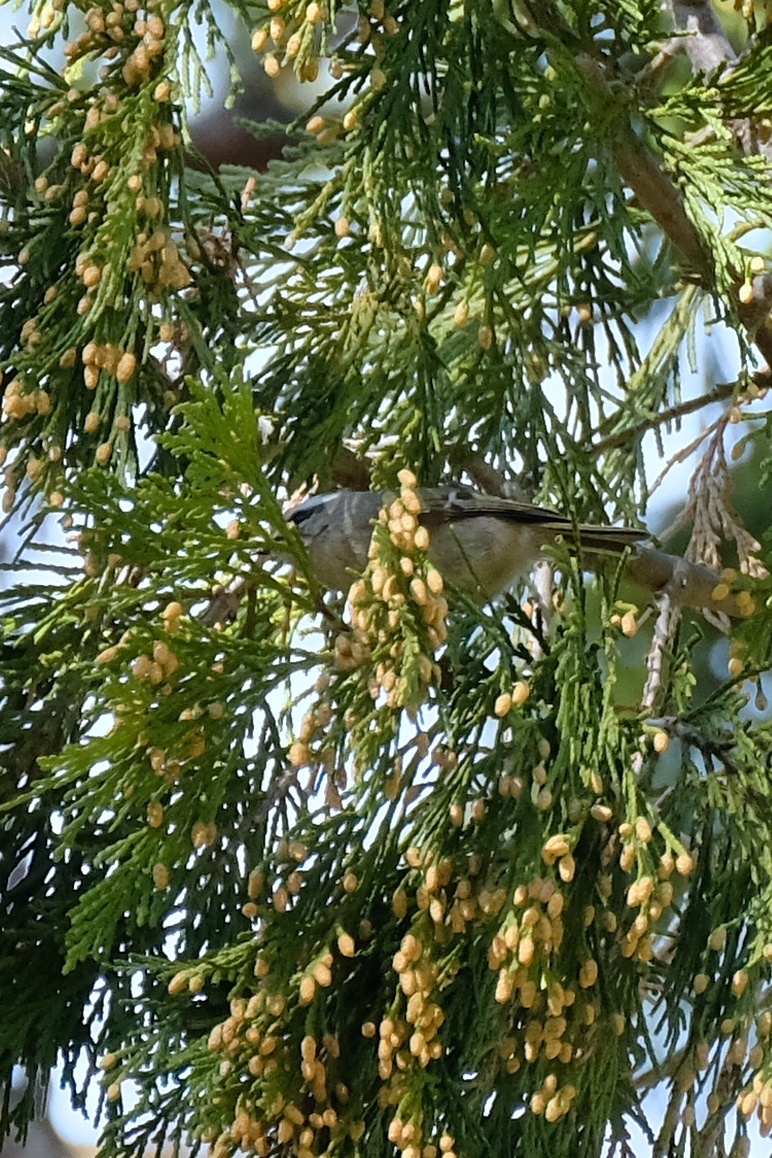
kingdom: Animalia
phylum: Chordata
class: Aves
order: Passeriformes
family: Regulidae
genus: Regulus
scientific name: Regulus satrapa
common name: Golden-crowned kinglet
